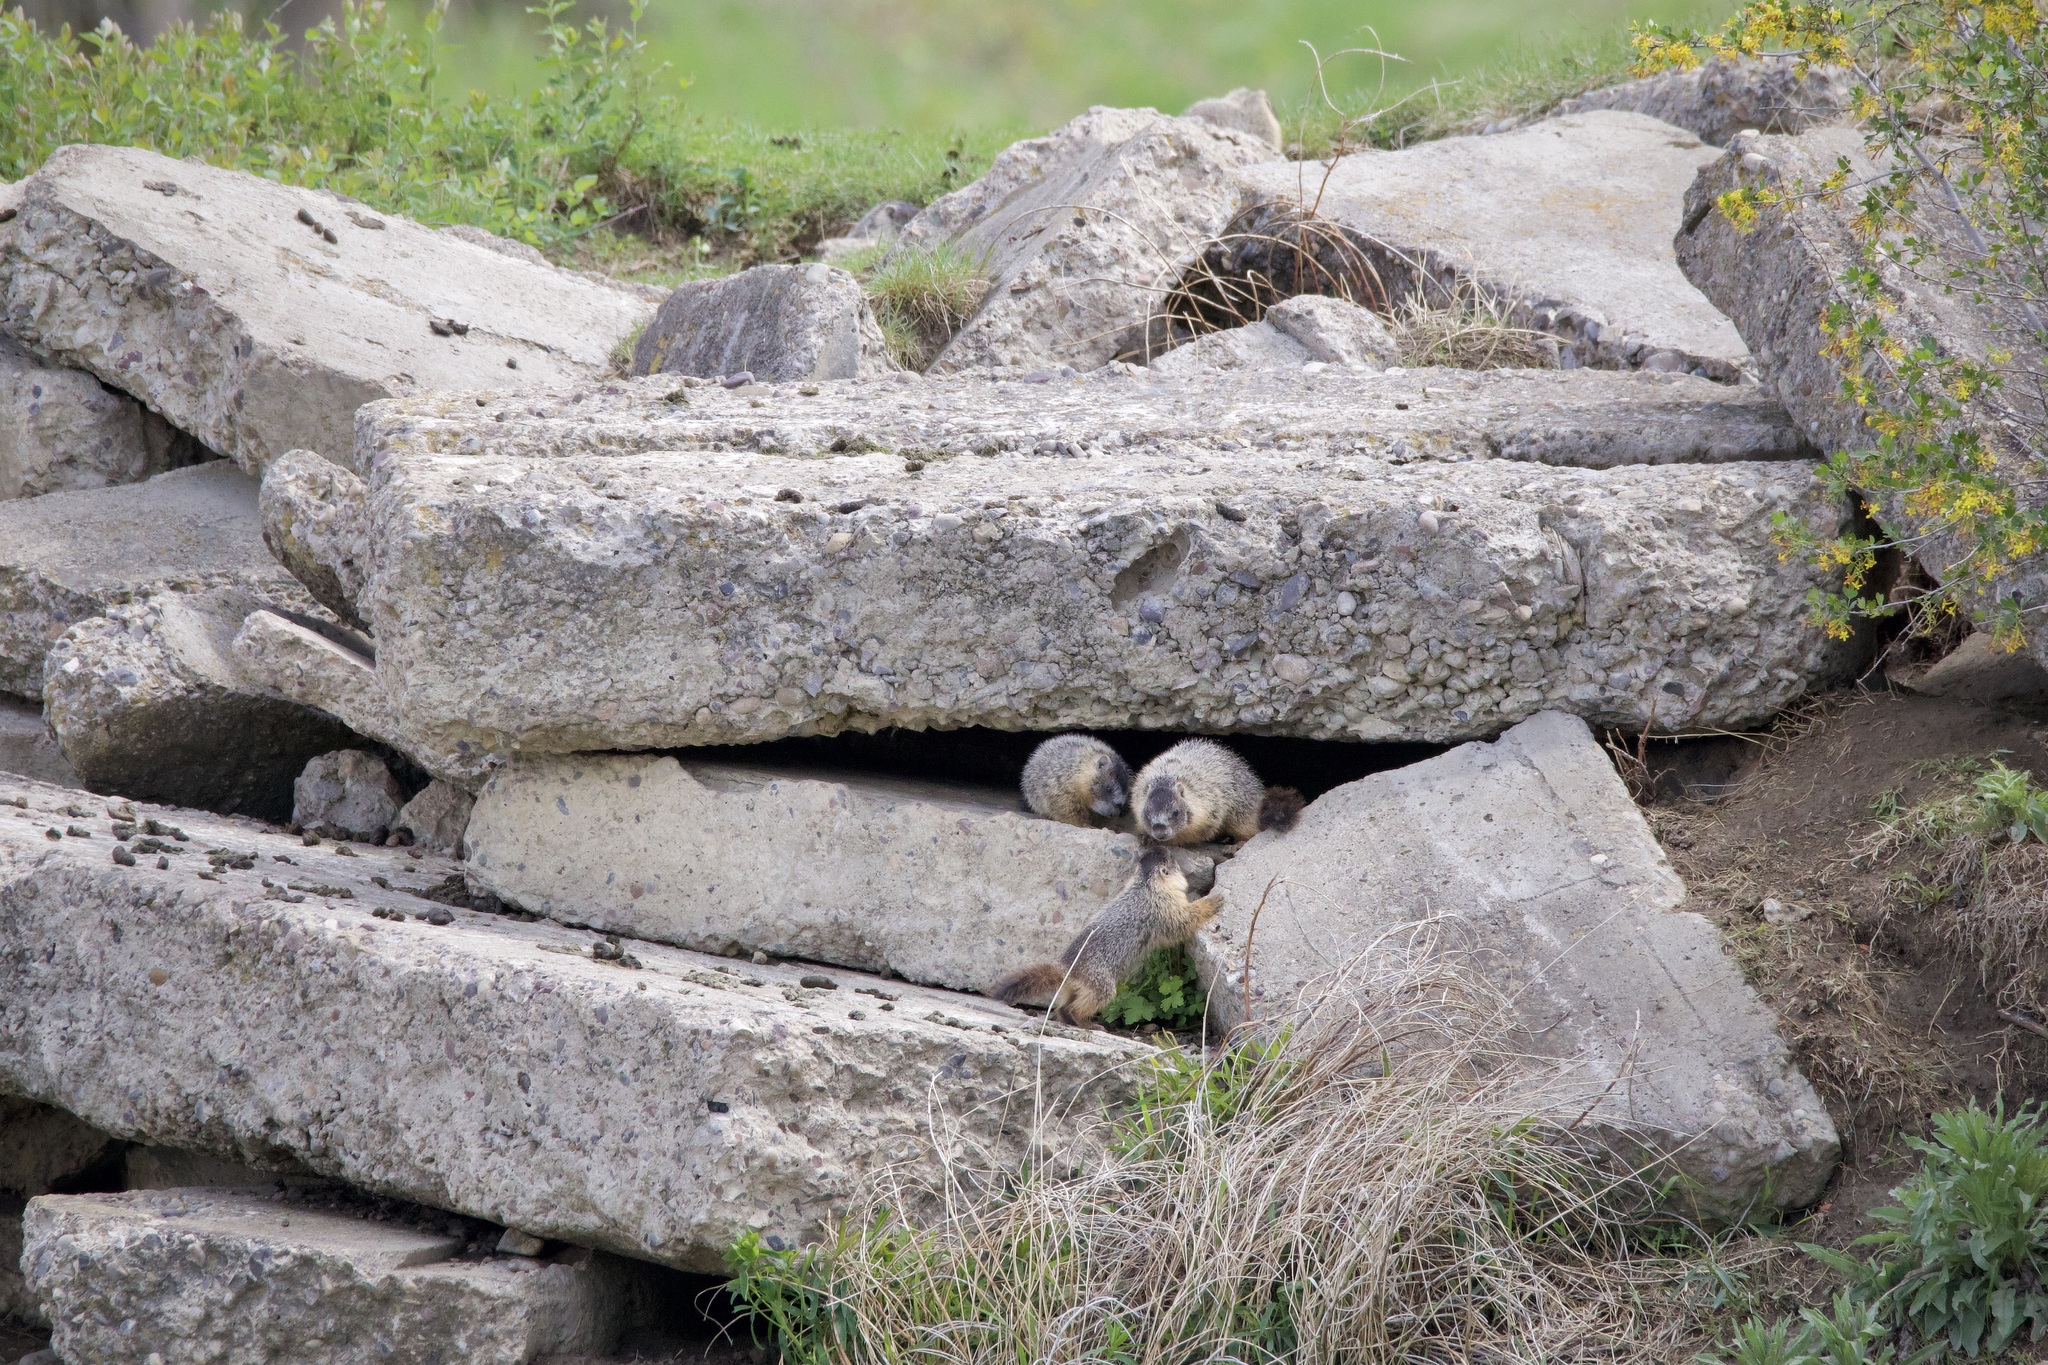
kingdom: Animalia
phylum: Chordata
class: Mammalia
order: Rodentia
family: Sciuridae
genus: Marmota
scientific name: Marmota flaviventris
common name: Yellow-bellied marmot
